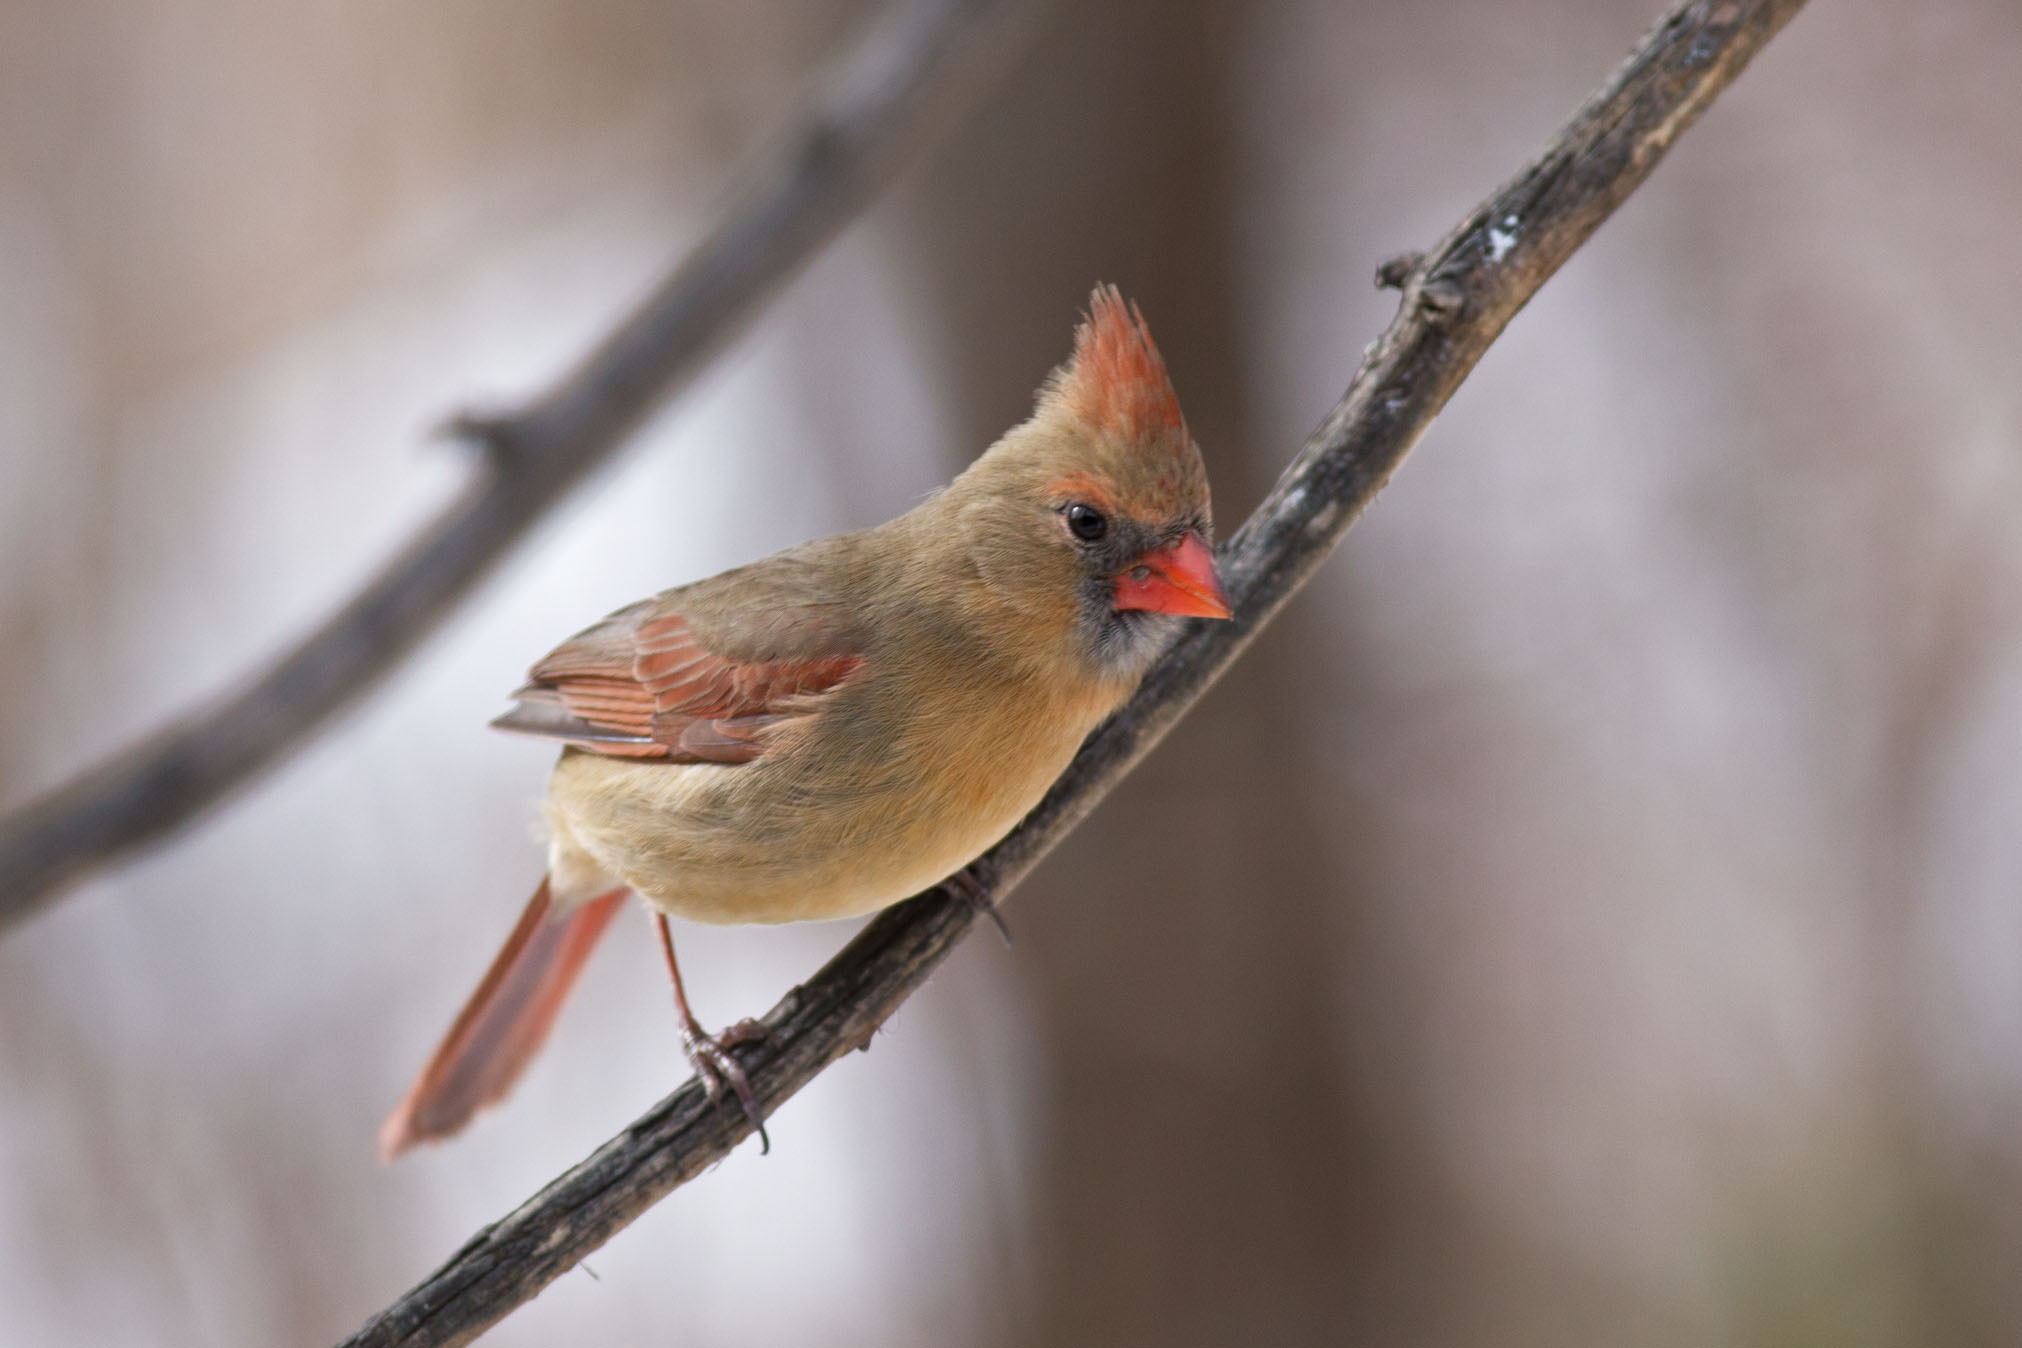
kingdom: Animalia
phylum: Chordata
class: Aves
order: Passeriformes
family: Cardinalidae
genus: Cardinalis
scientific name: Cardinalis cardinalis
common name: Northern cardinal
